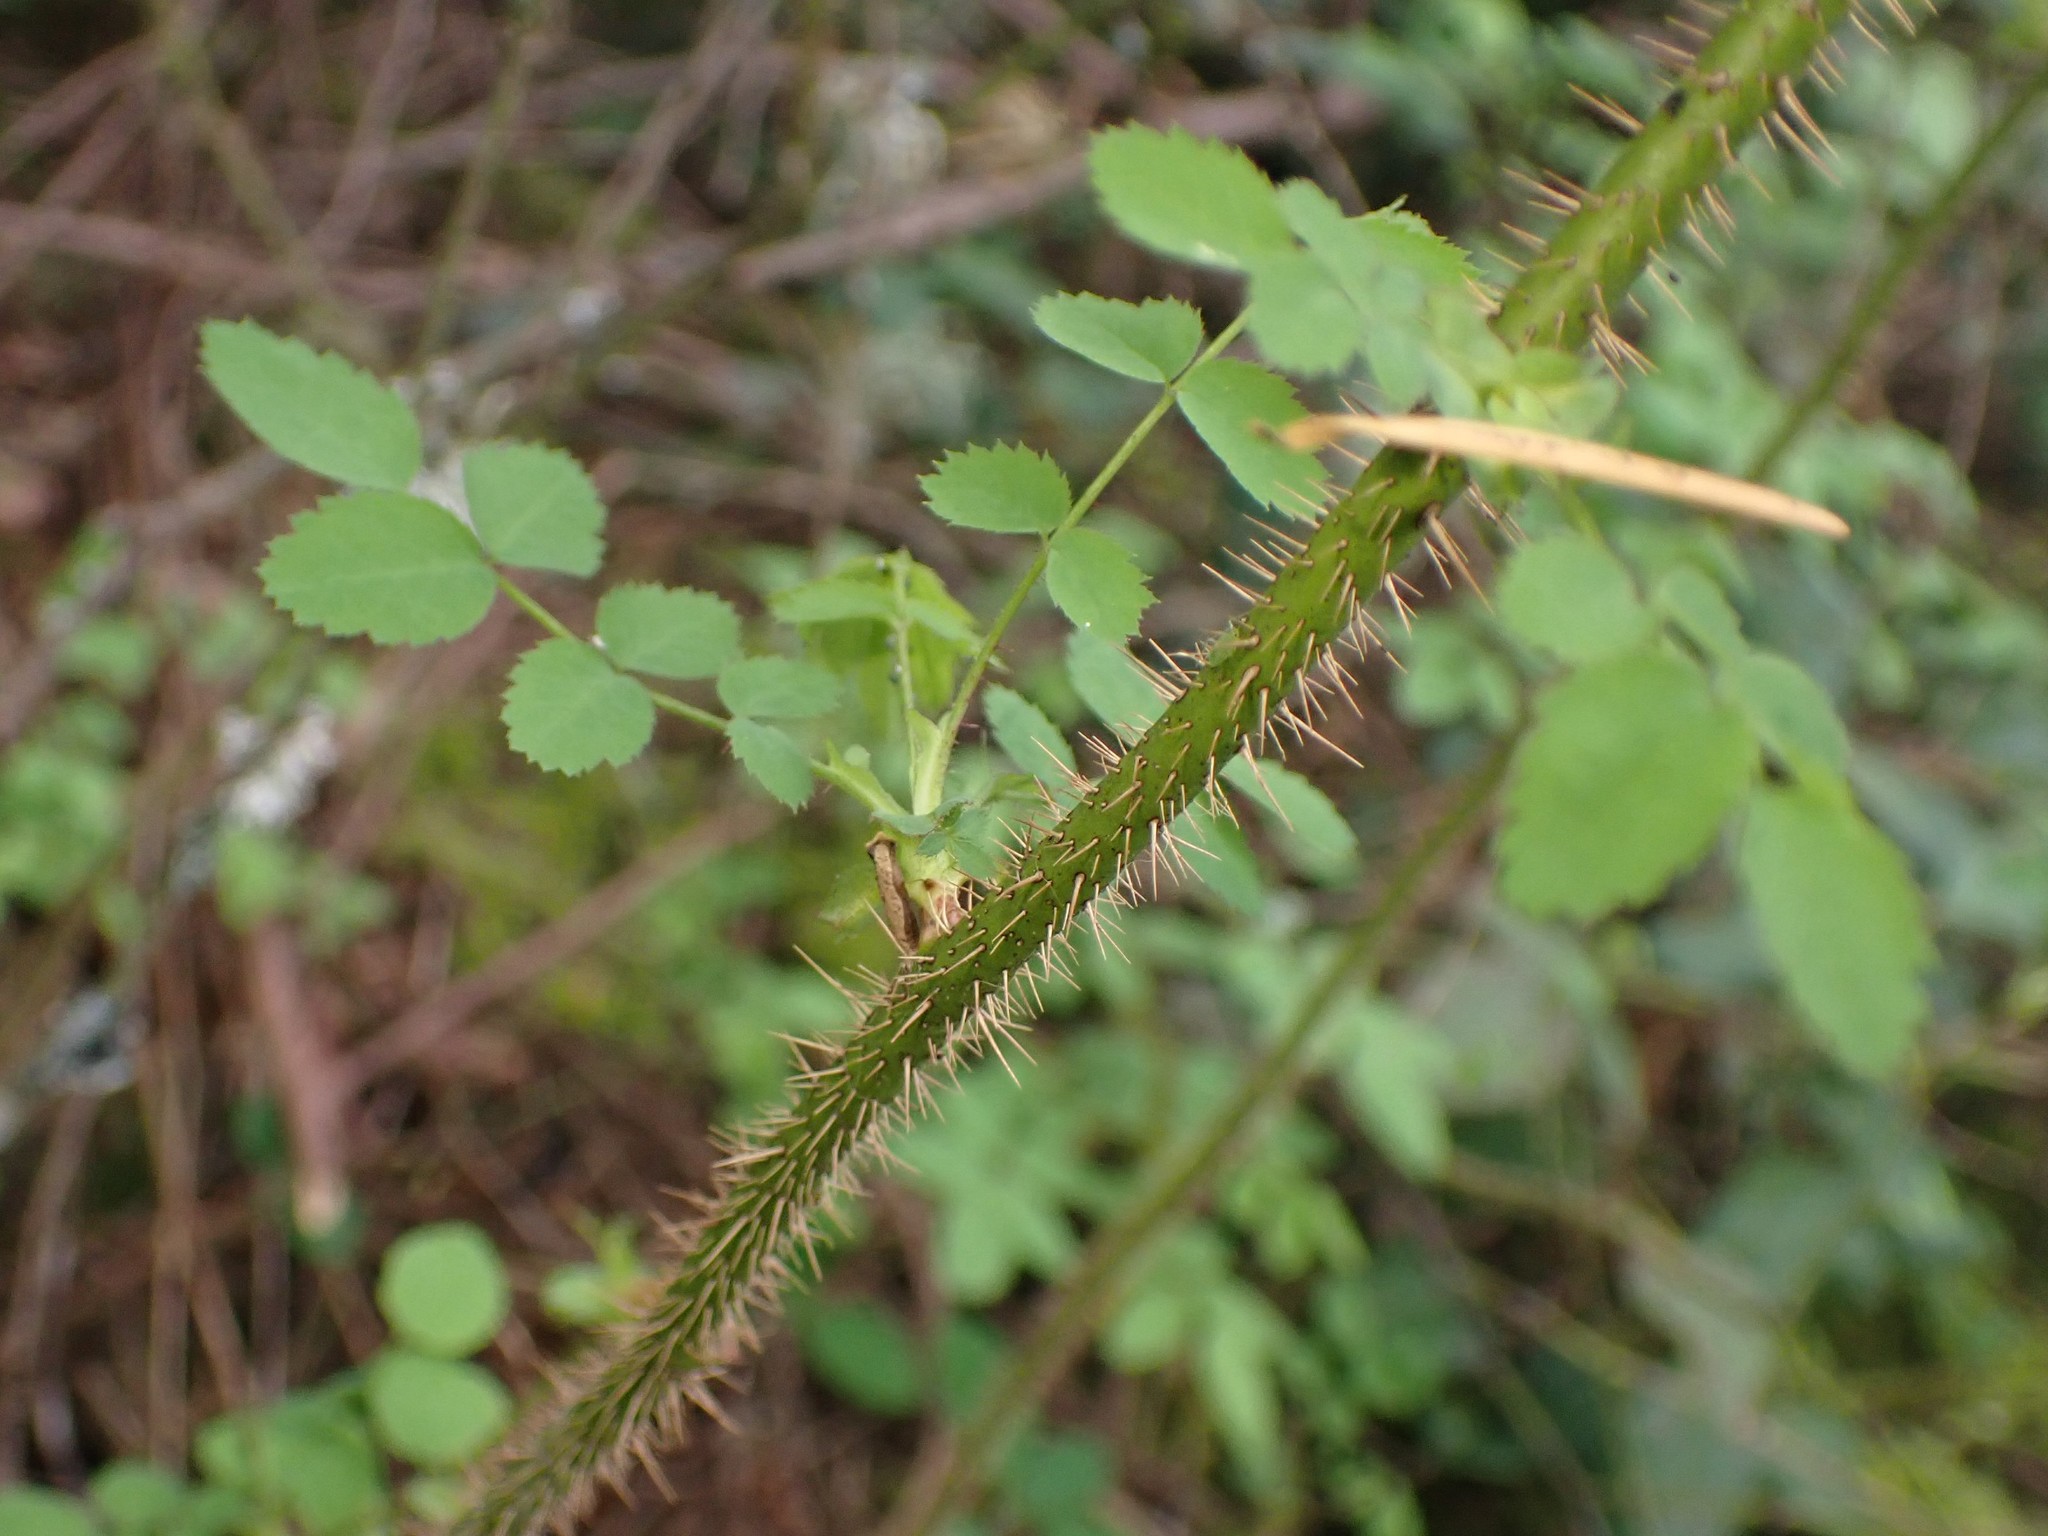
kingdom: Plantae
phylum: Tracheophyta
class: Magnoliopsida
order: Rosales
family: Rosaceae
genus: Rosa
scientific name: Rosa gymnocarpa
